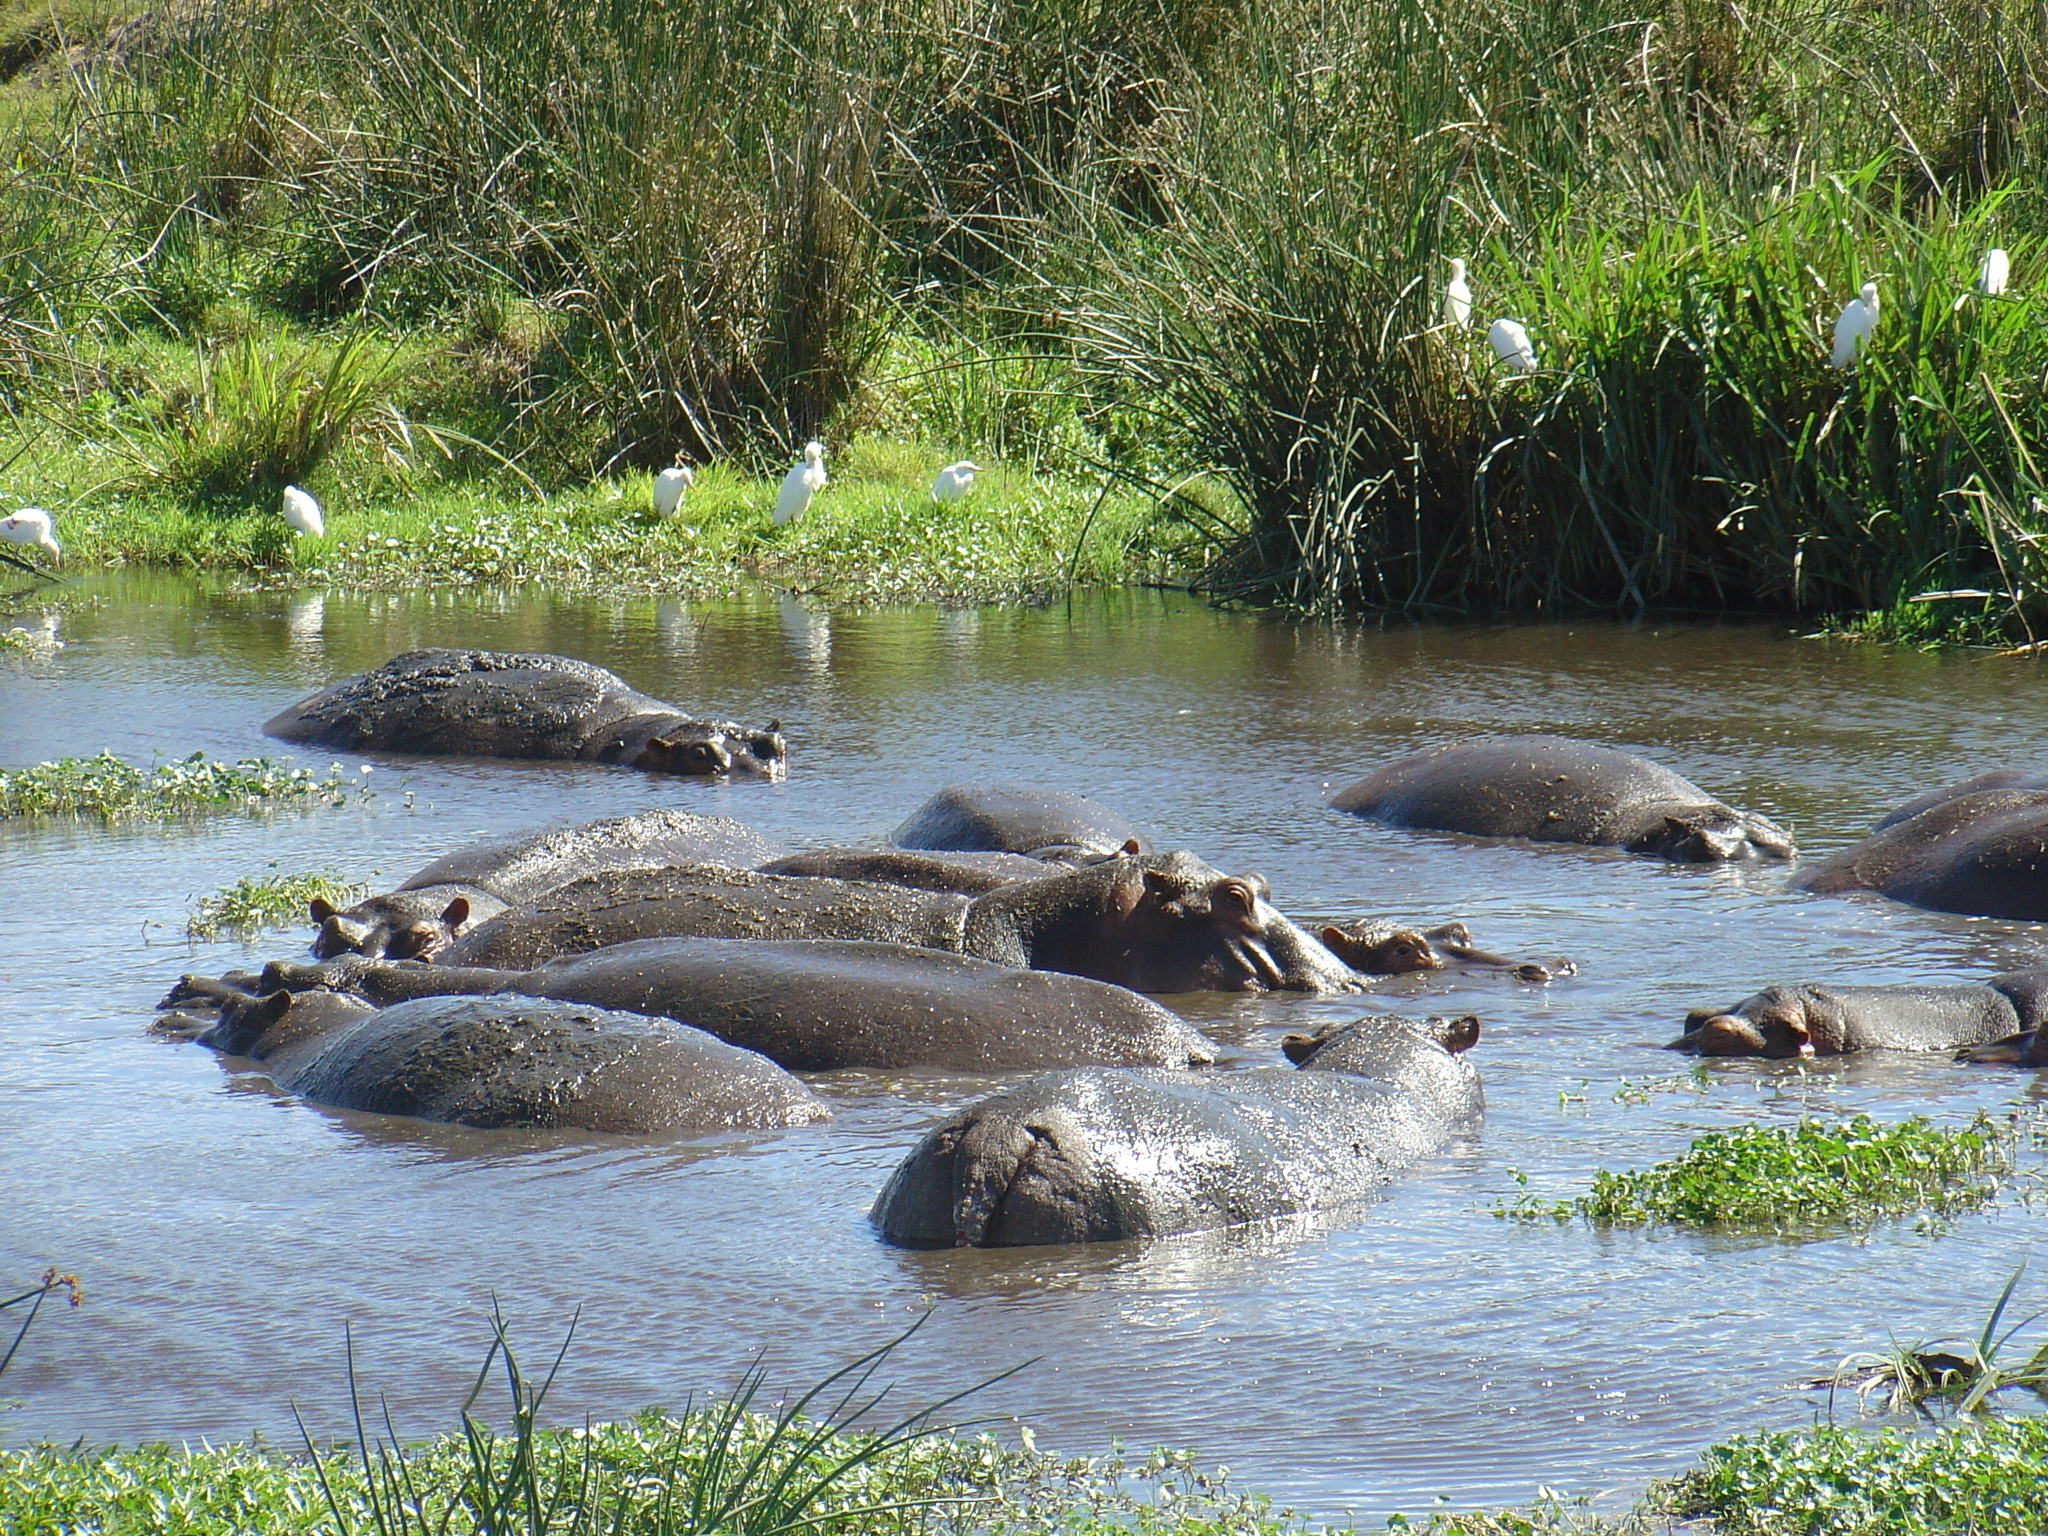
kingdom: Animalia
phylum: Chordata
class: Mammalia
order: Artiodactyla
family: Hippopotamidae
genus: Hippopotamus
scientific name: Hippopotamus amphibius
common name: Common hippopotamus
